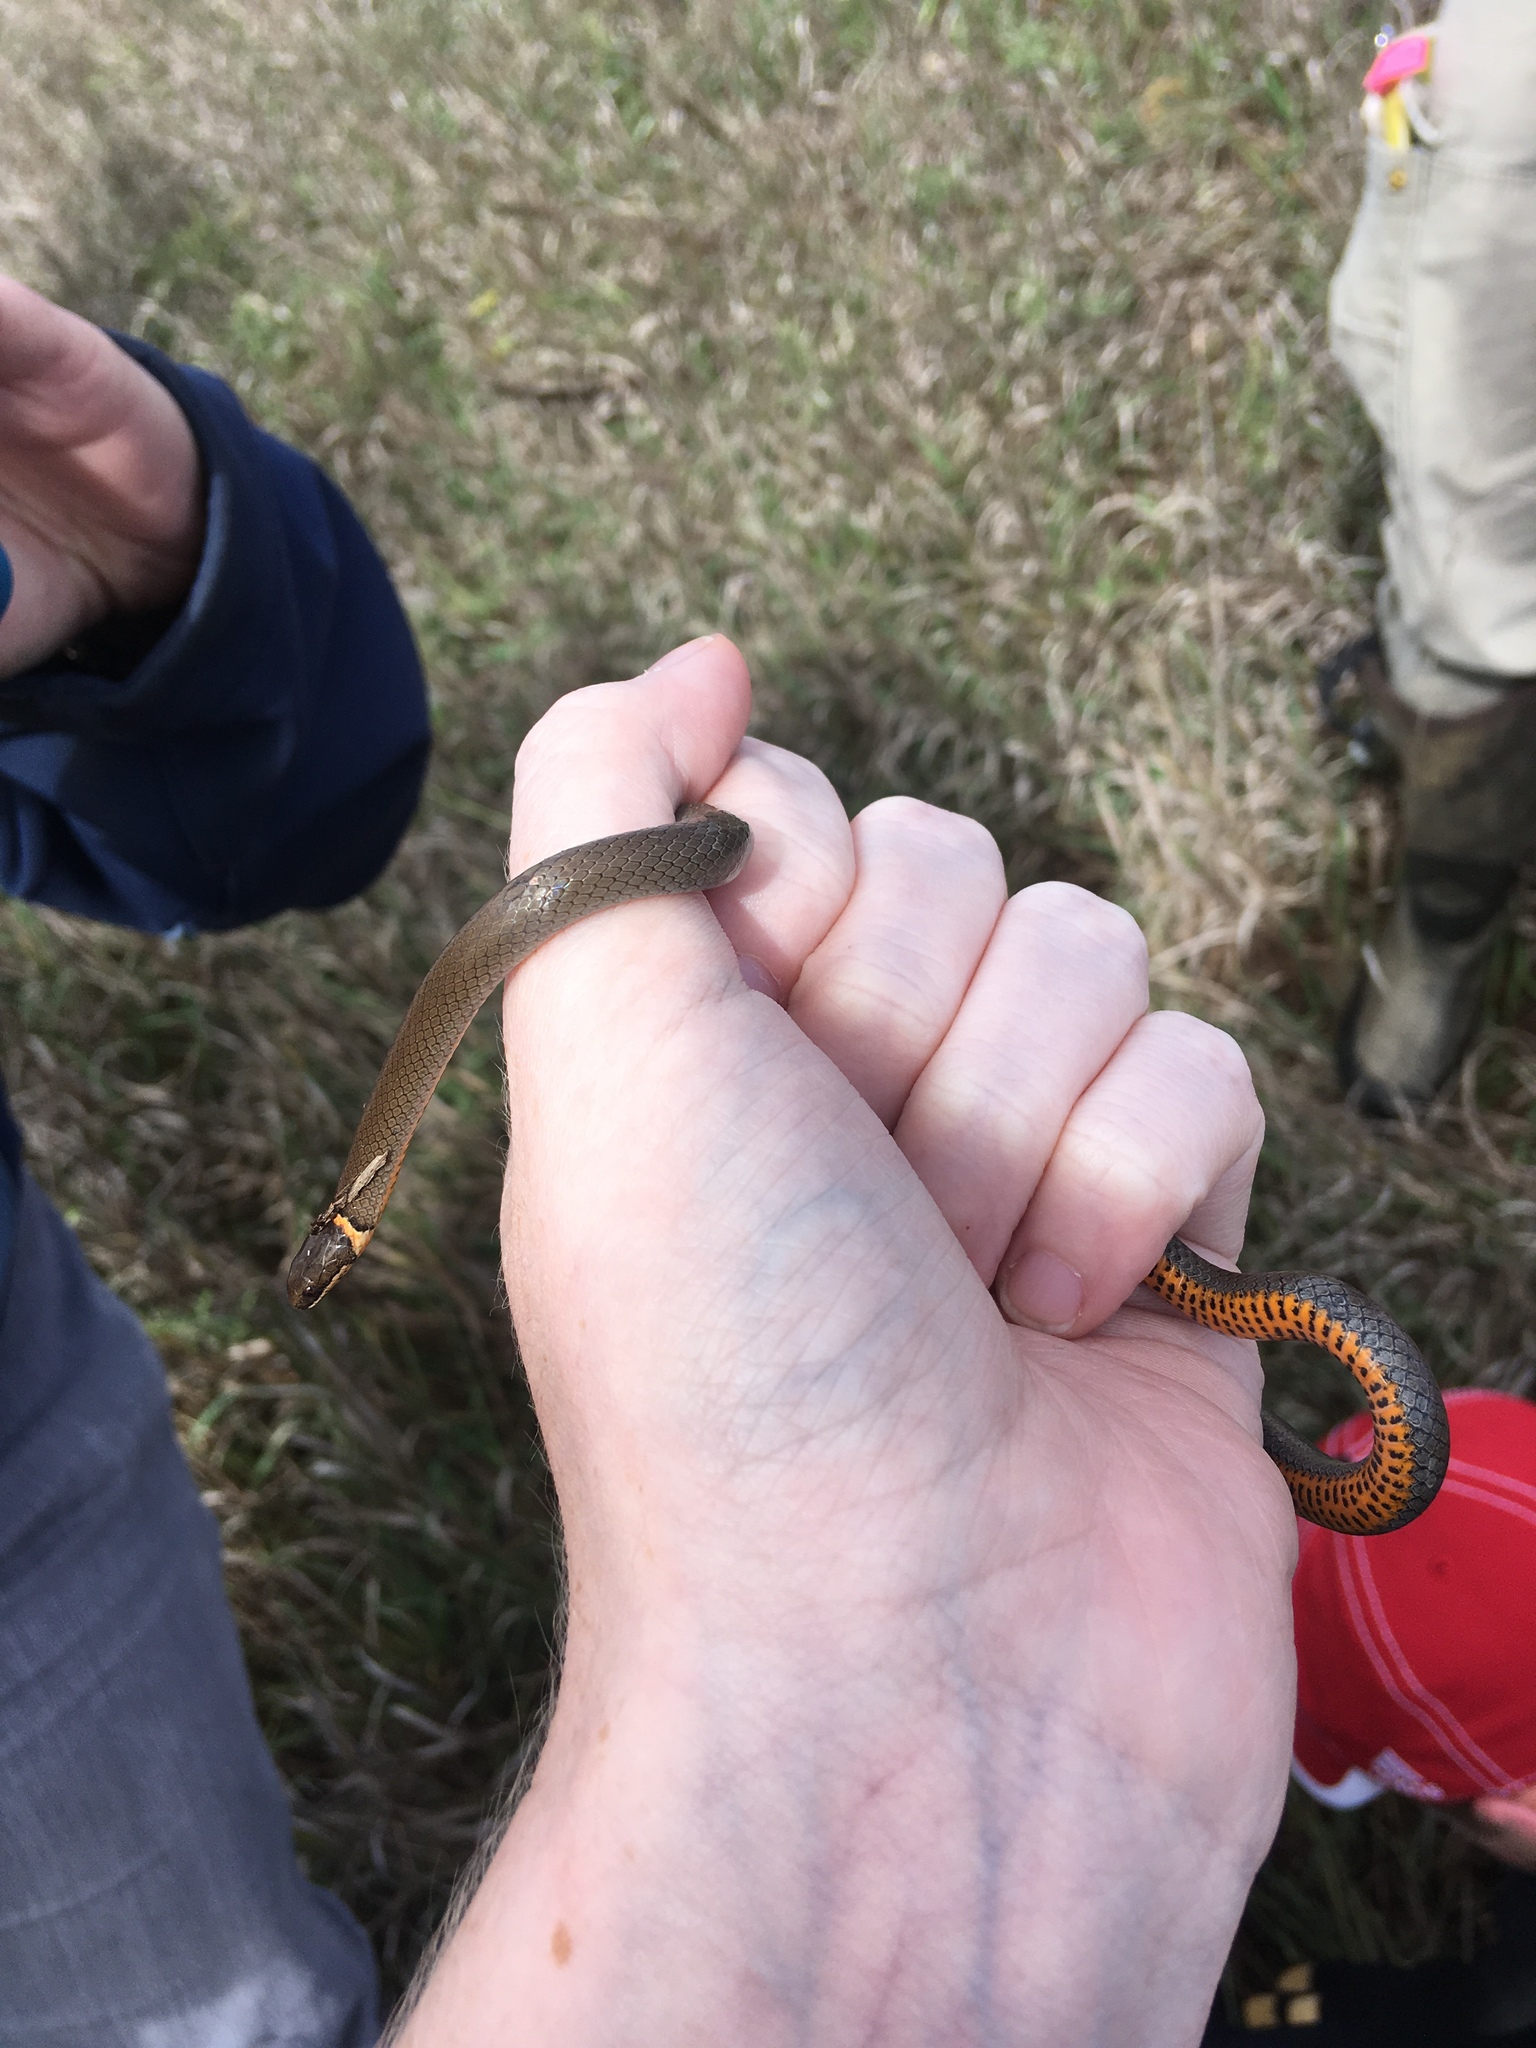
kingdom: Animalia
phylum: Chordata
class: Squamata
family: Colubridae
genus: Diadophis
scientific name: Diadophis punctatus
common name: Ringneck snake
